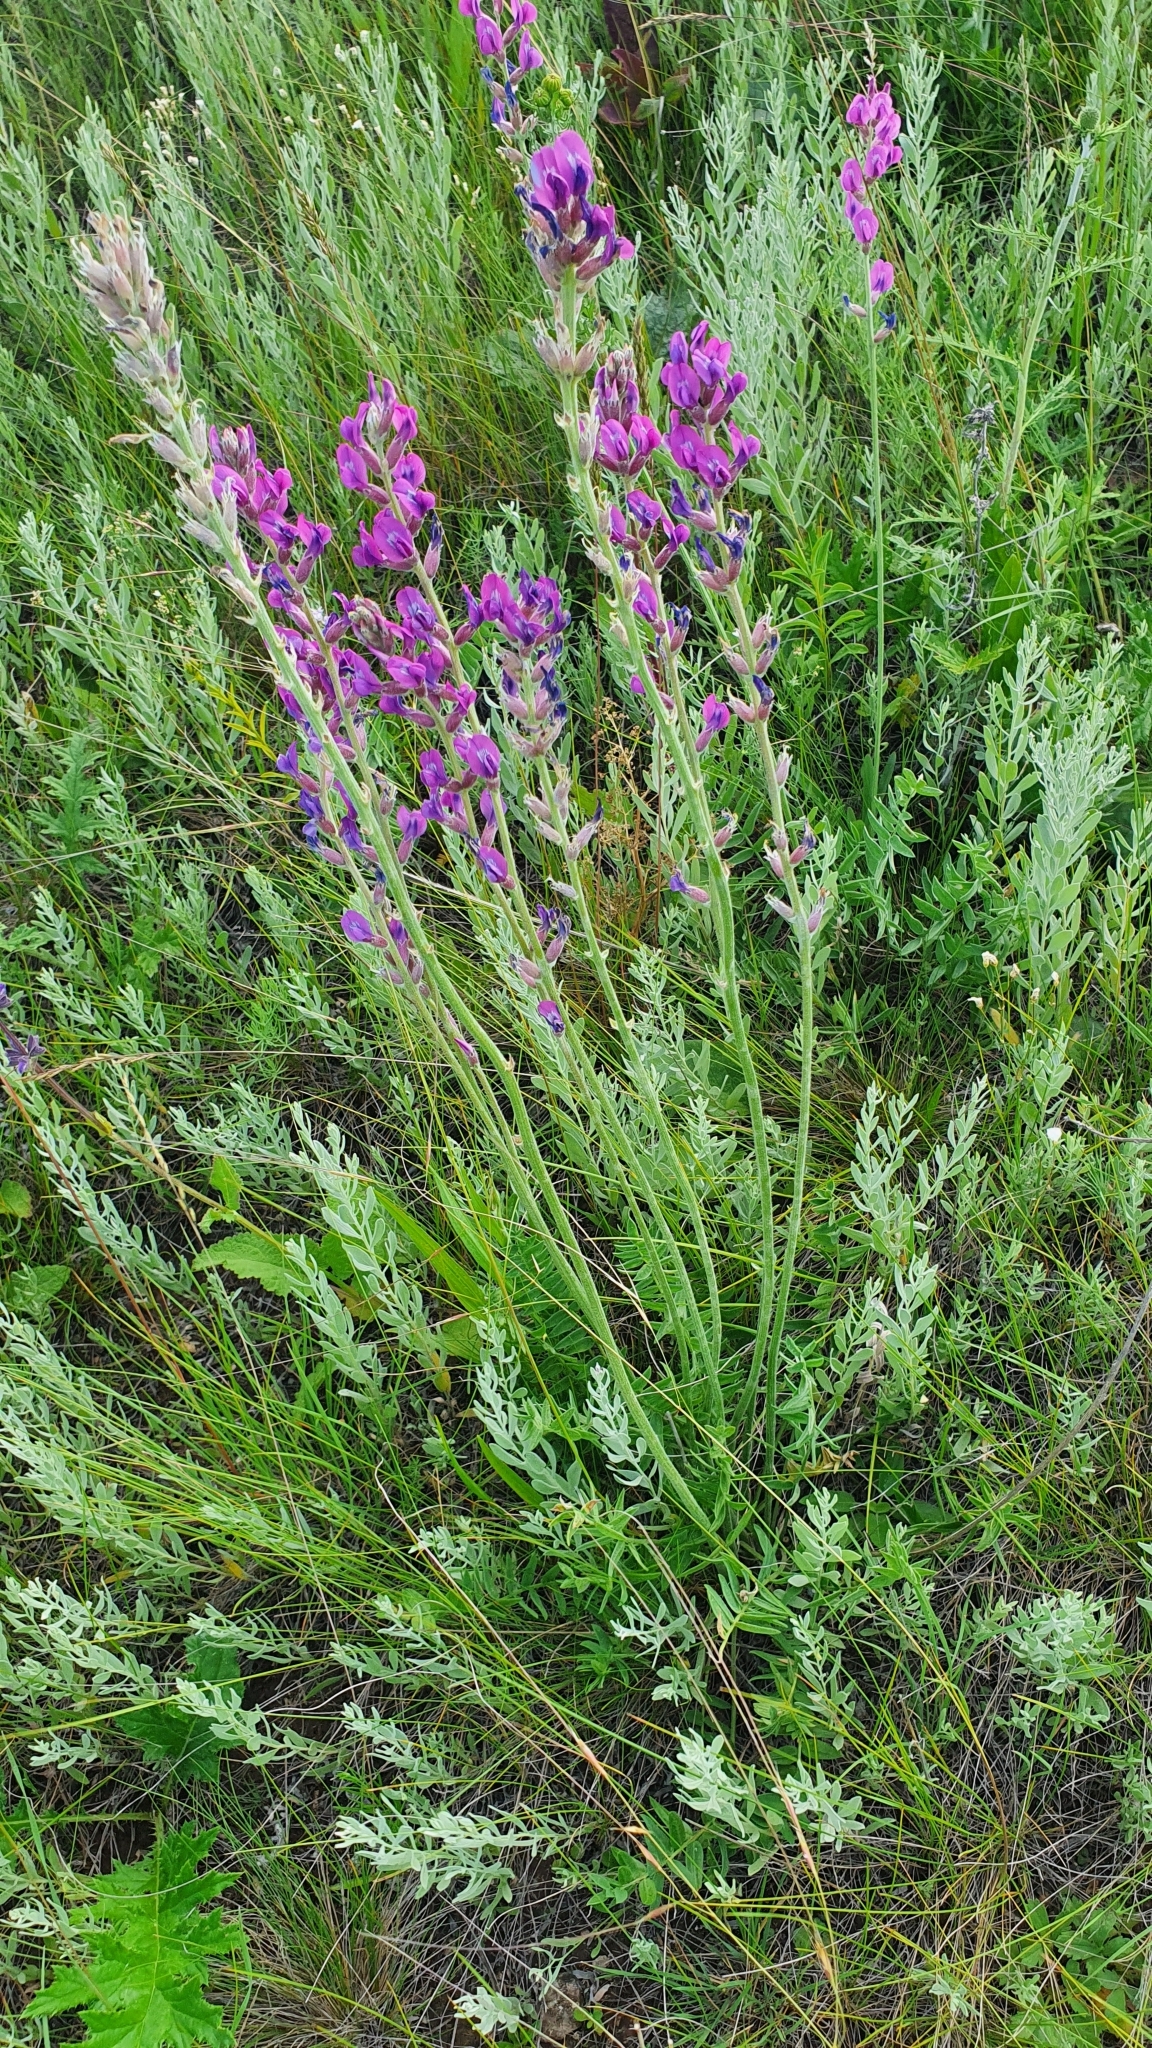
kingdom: Plantae
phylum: Tracheophyta
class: Magnoliopsida
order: Fabales
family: Fabaceae
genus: Oxytropis
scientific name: Oxytropis knjazevii
